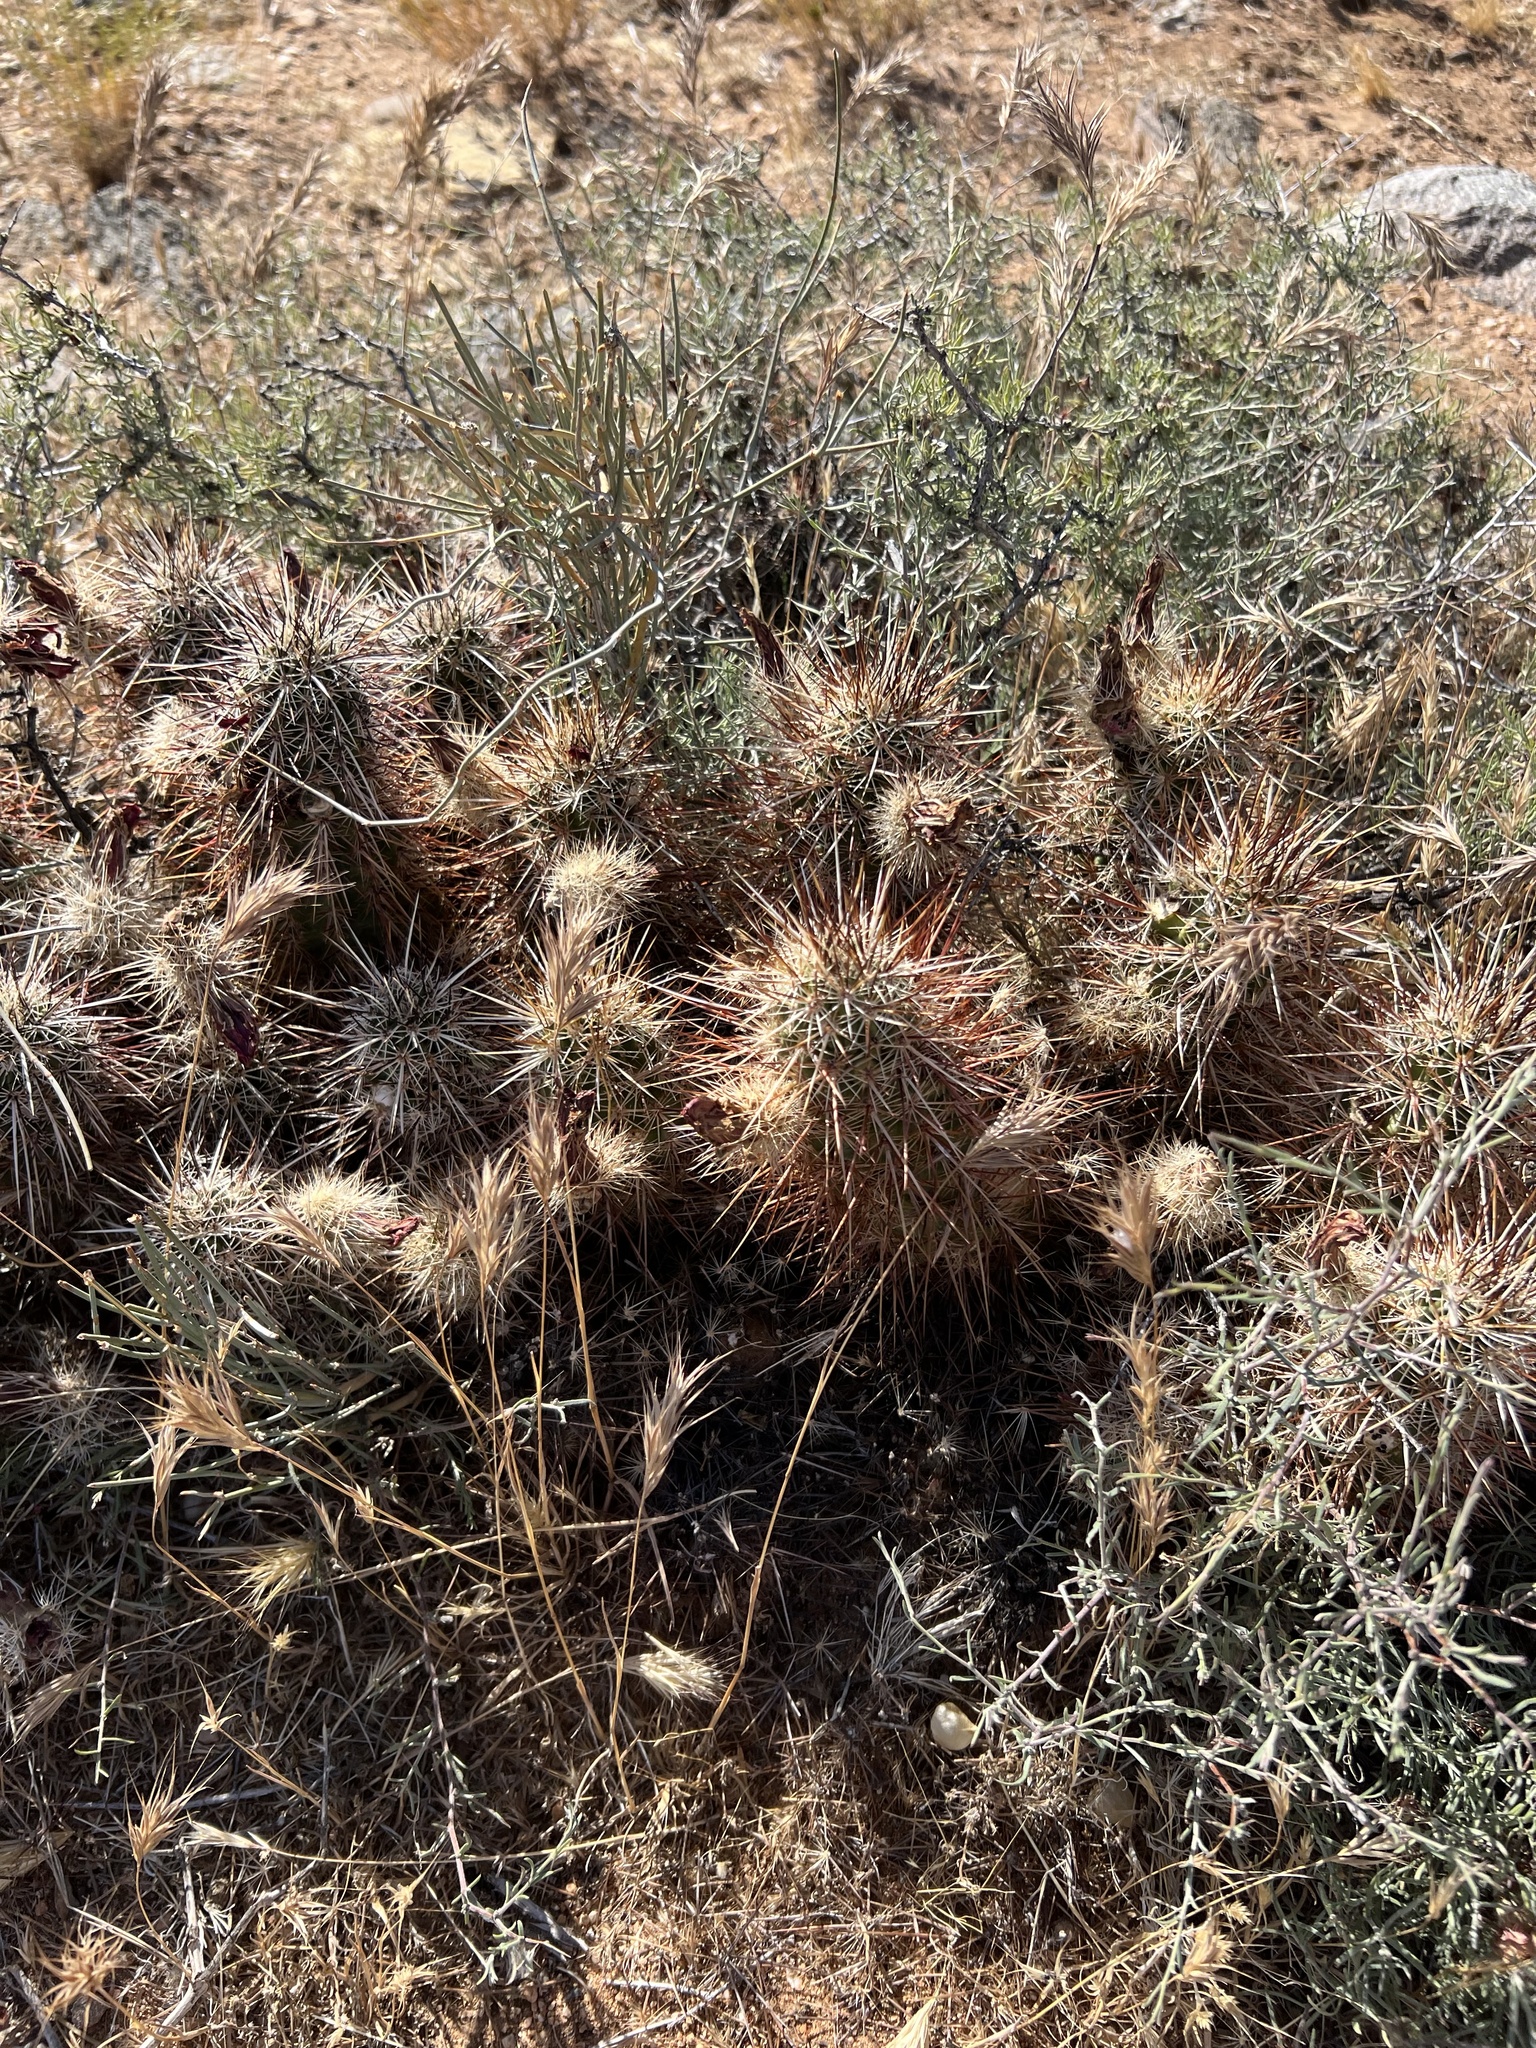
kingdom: Plantae
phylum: Tracheophyta
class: Magnoliopsida
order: Caryophyllales
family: Cactaceae
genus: Echinocereus
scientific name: Echinocereus engelmannii
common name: Engelmann's hedgehog cactus
